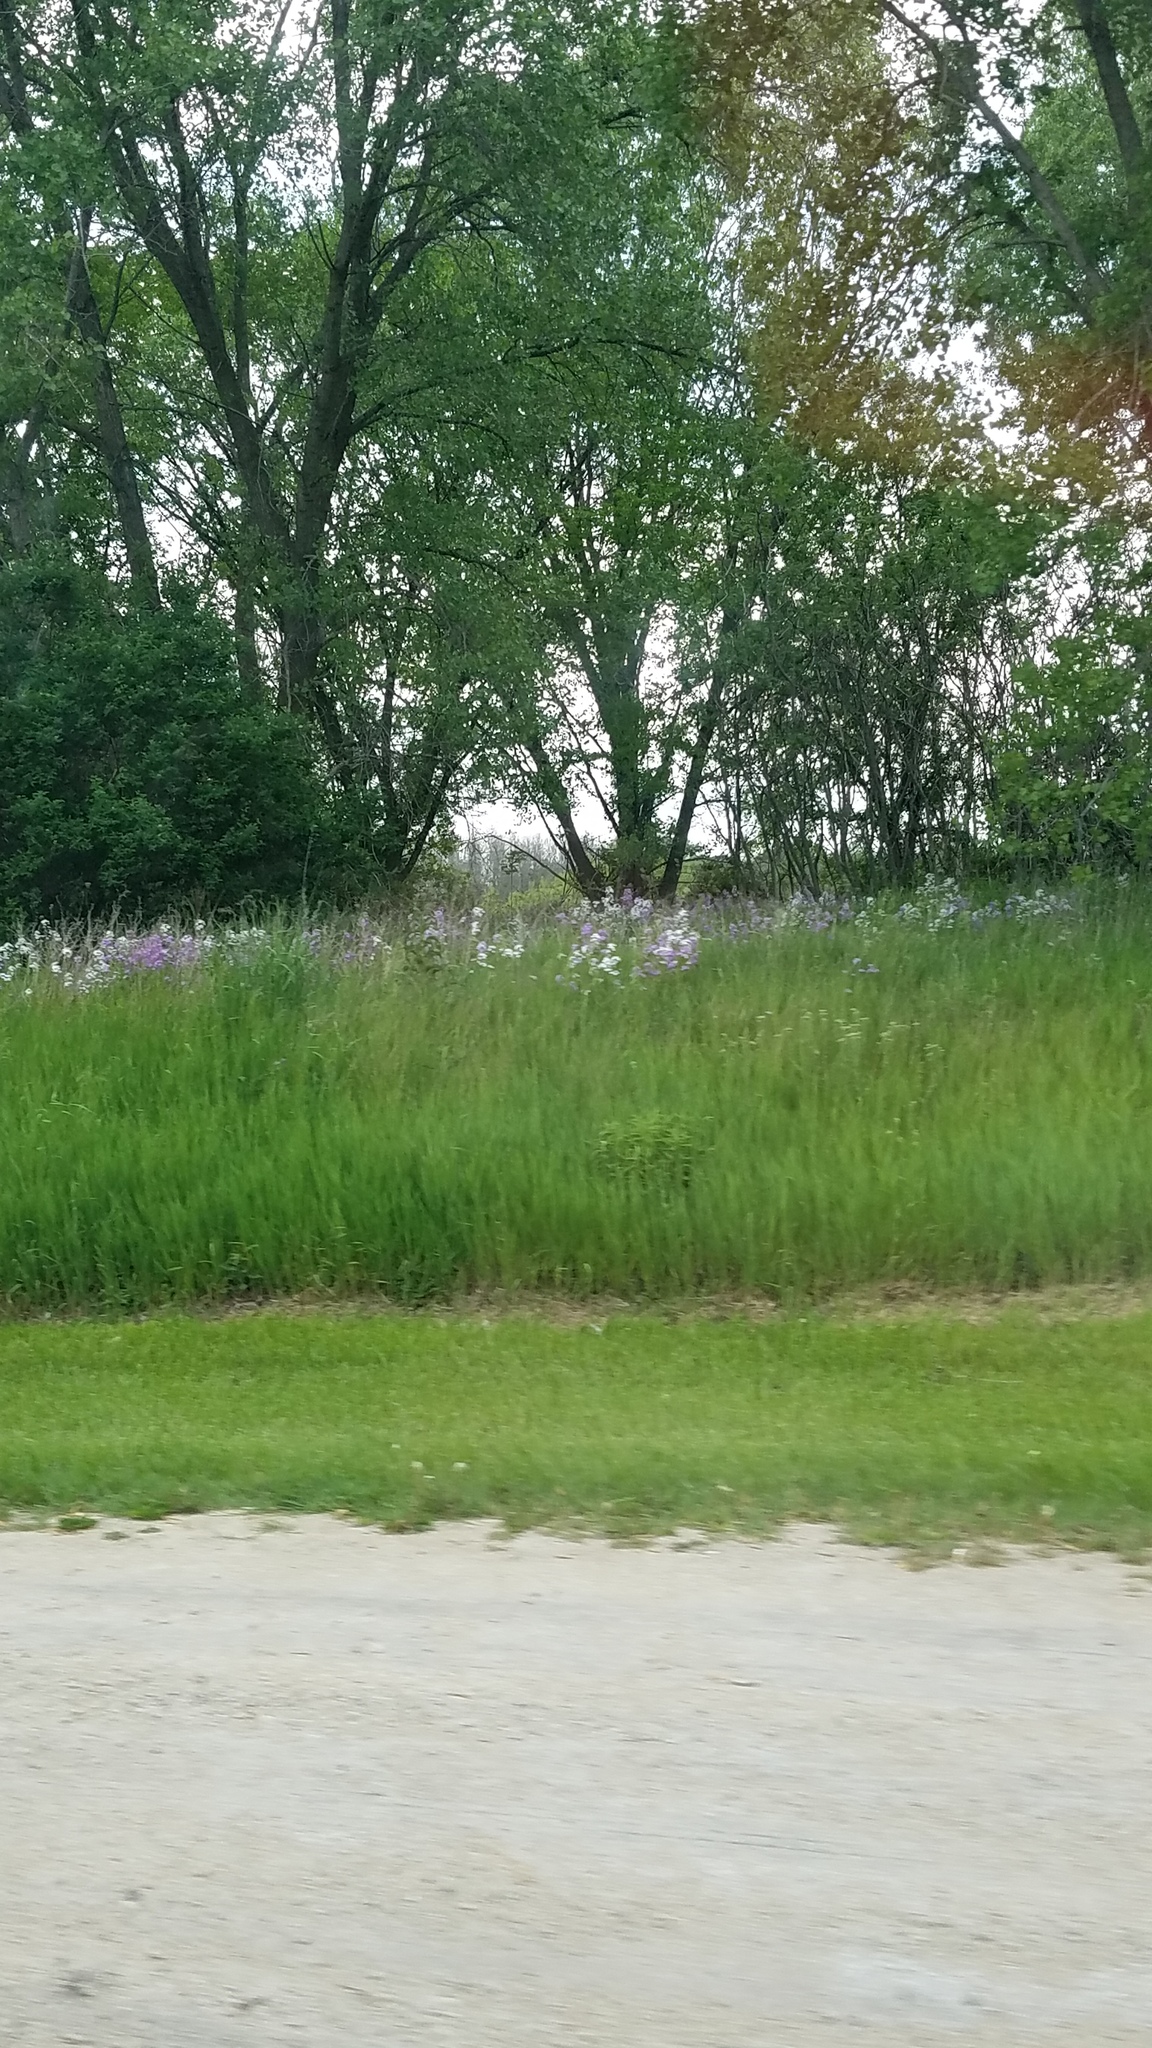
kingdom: Plantae
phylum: Tracheophyta
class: Magnoliopsida
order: Brassicales
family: Brassicaceae
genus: Hesperis
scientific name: Hesperis matronalis
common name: Dame's-violet
